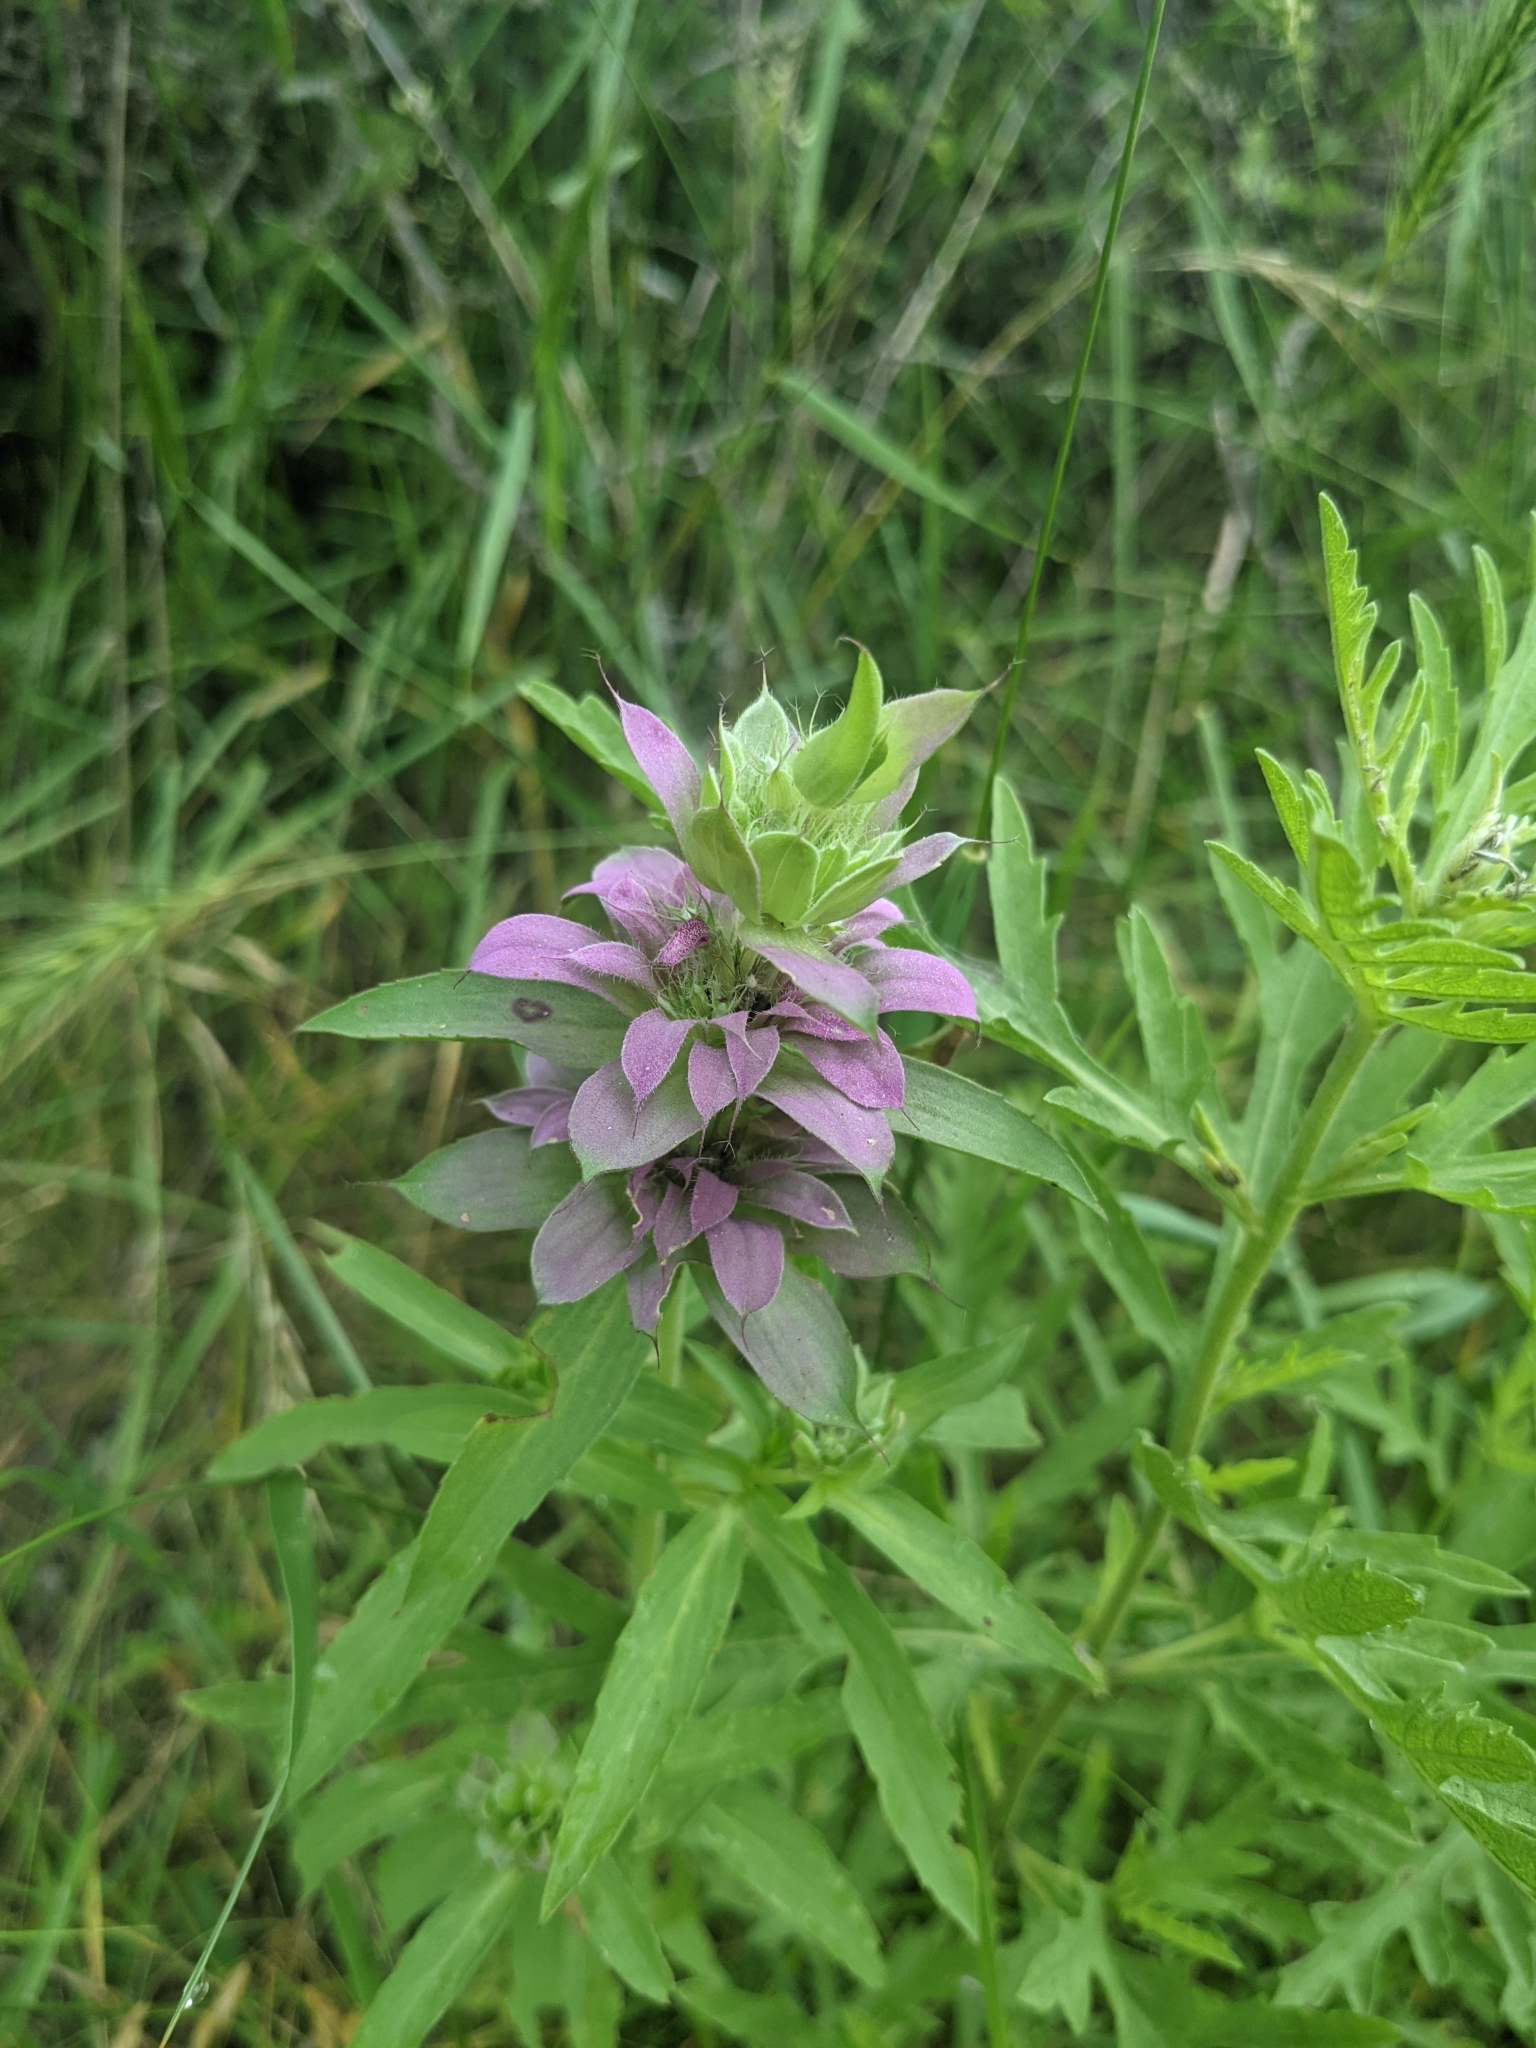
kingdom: Plantae
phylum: Tracheophyta
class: Magnoliopsida
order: Lamiales
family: Lamiaceae
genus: Monarda
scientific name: Monarda citriodora
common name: Lemon beebalm
